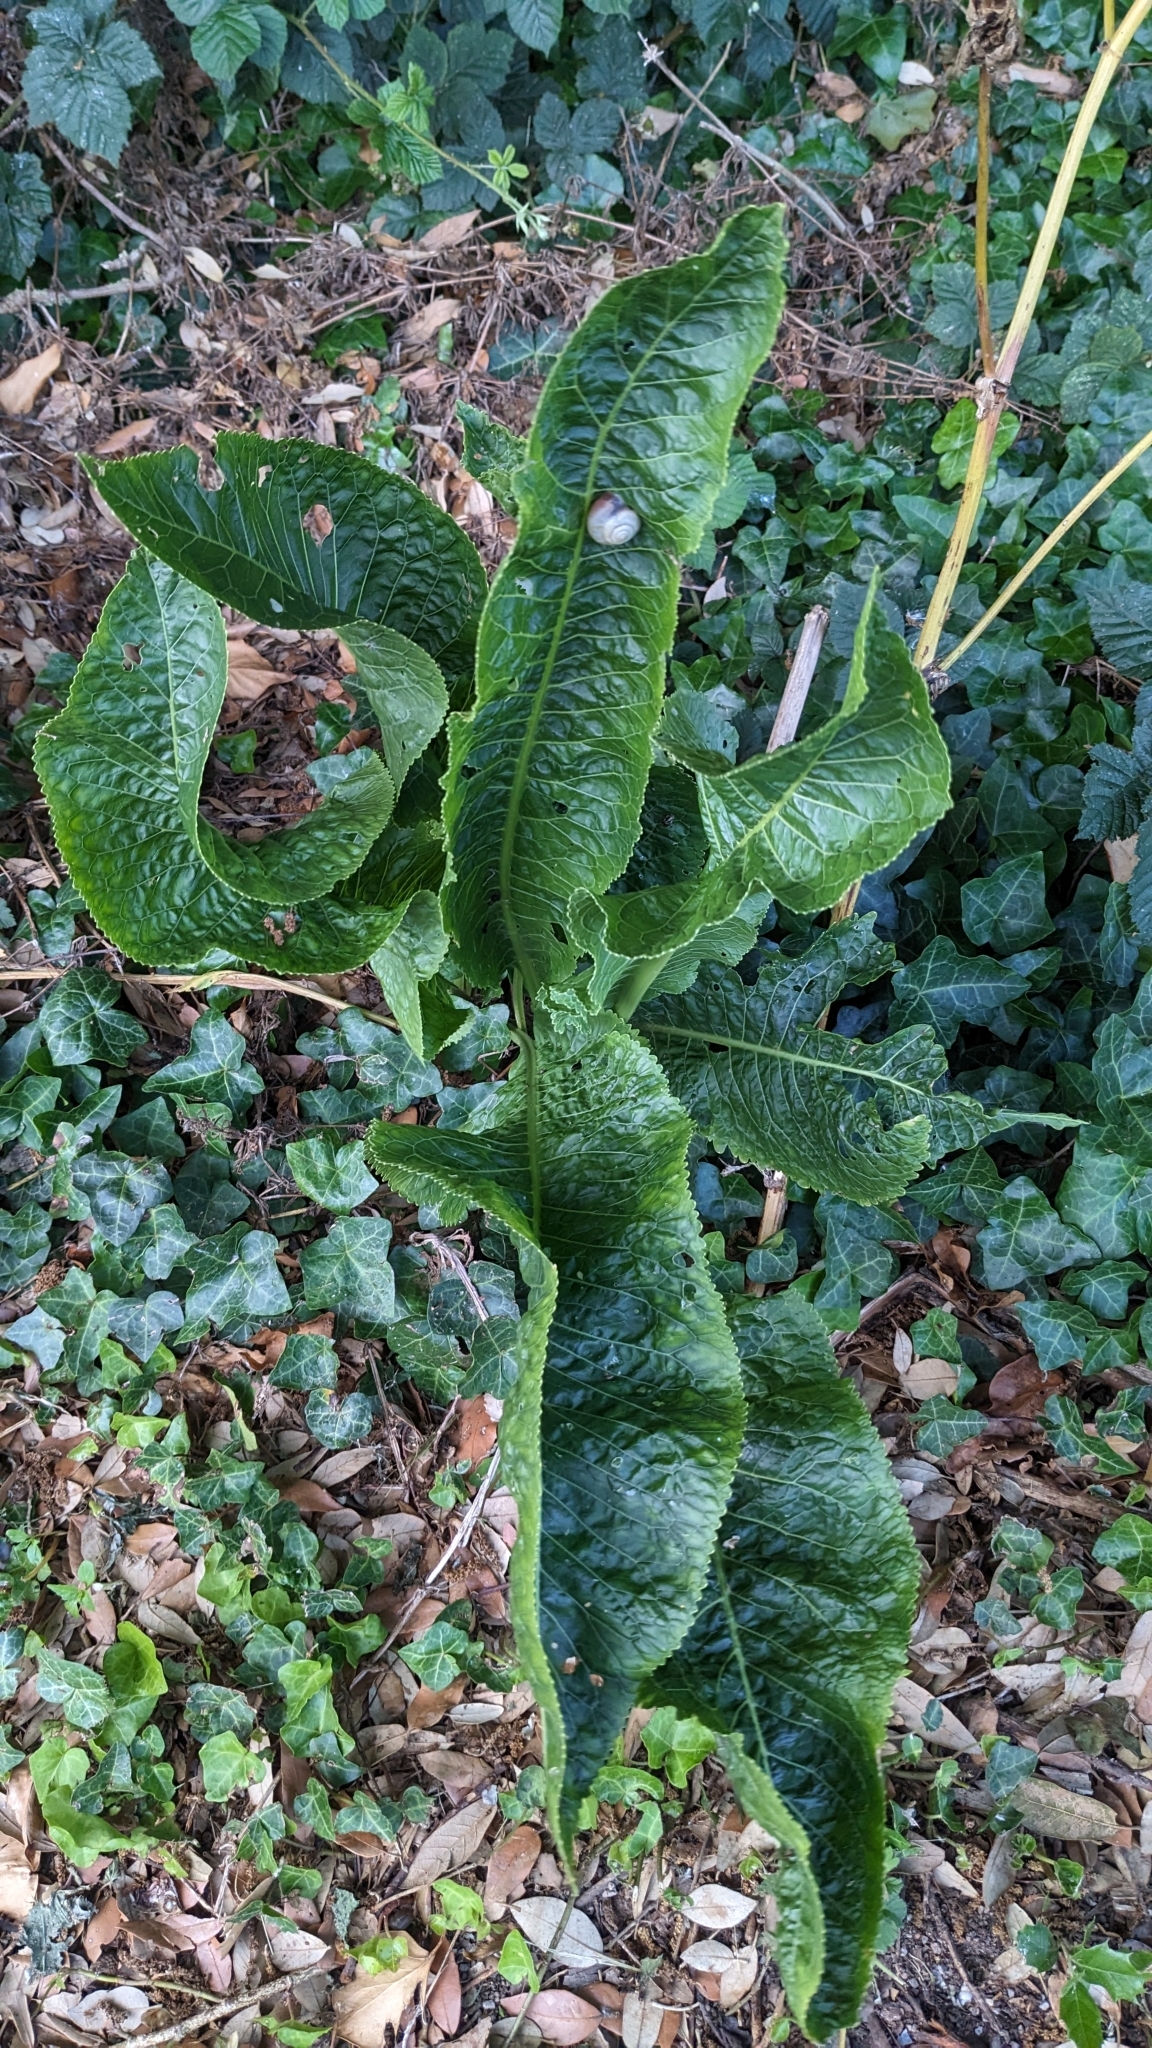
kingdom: Plantae
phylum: Tracheophyta
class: Magnoliopsida
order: Brassicales
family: Brassicaceae
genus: Armoracia
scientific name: Armoracia rusticana
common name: Horseradish
